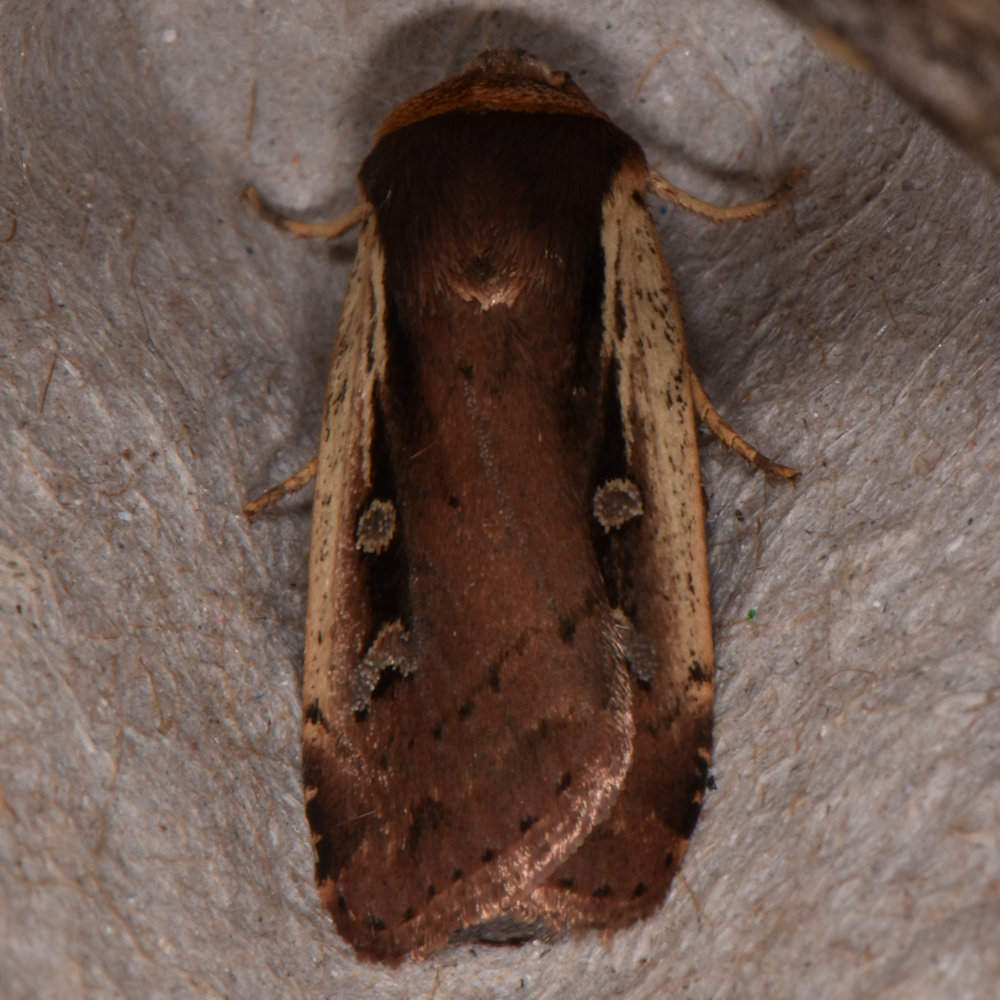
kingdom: Animalia
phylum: Arthropoda
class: Insecta
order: Lepidoptera
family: Noctuidae
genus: Ochropleura
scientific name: Ochropleura implecta
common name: Flame-shouldered dart
